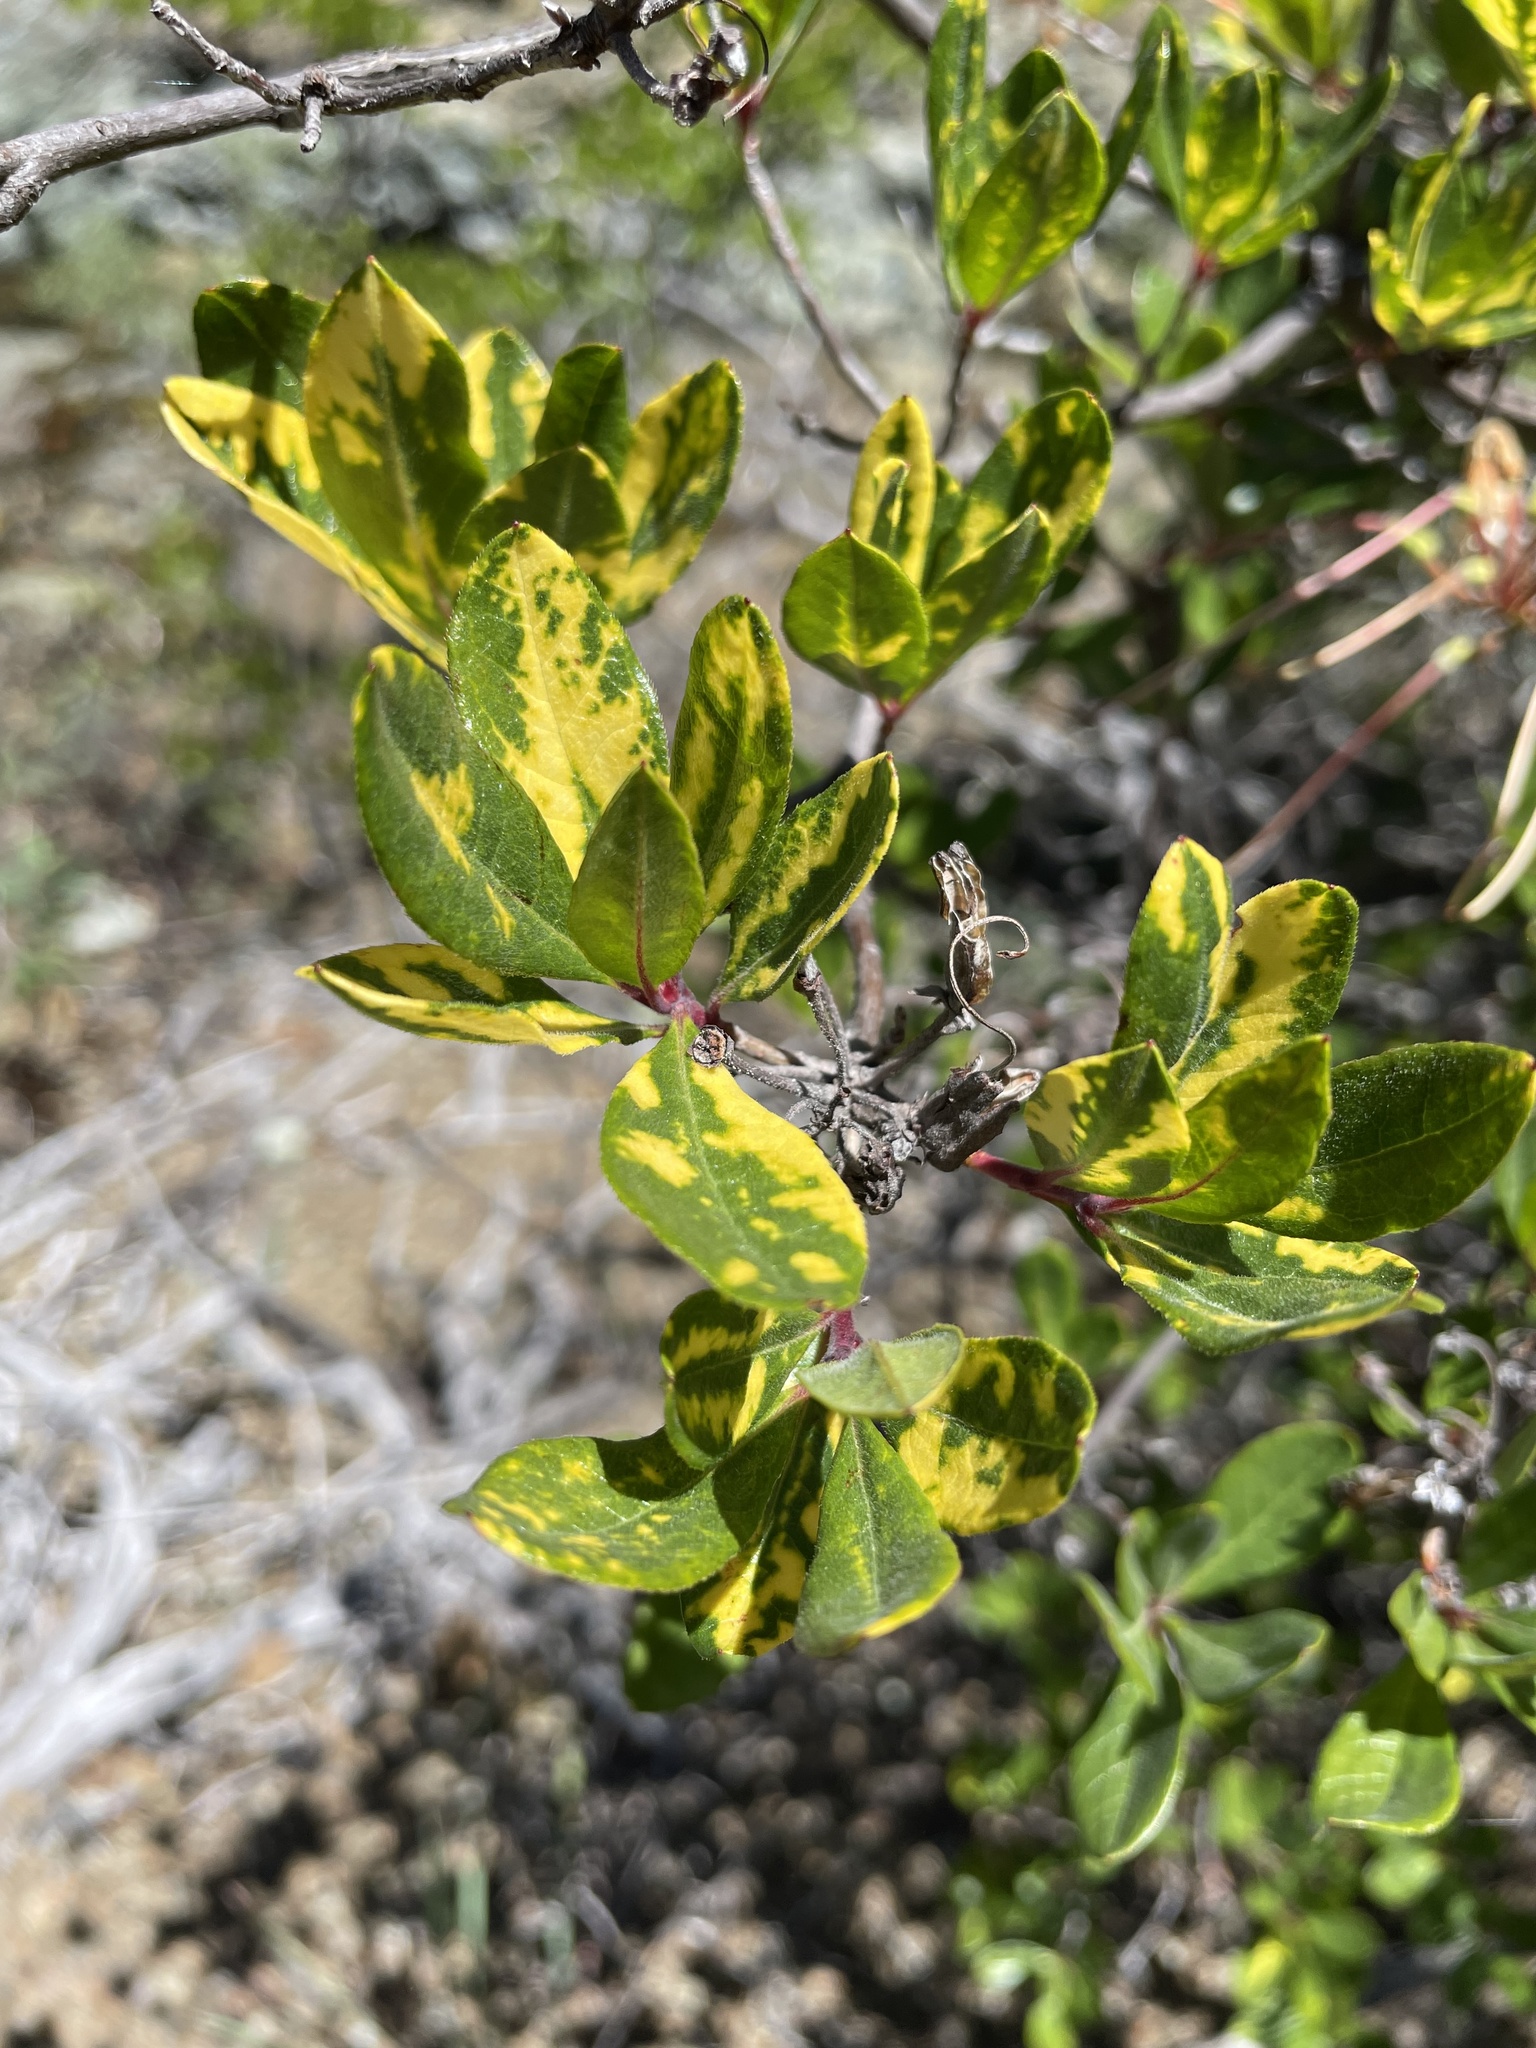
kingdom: Plantae
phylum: Tracheophyta
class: Magnoliopsida
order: Ericales
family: Ericaceae
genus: Rhododendron
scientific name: Rhododendron occidentale
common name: Western azalea
